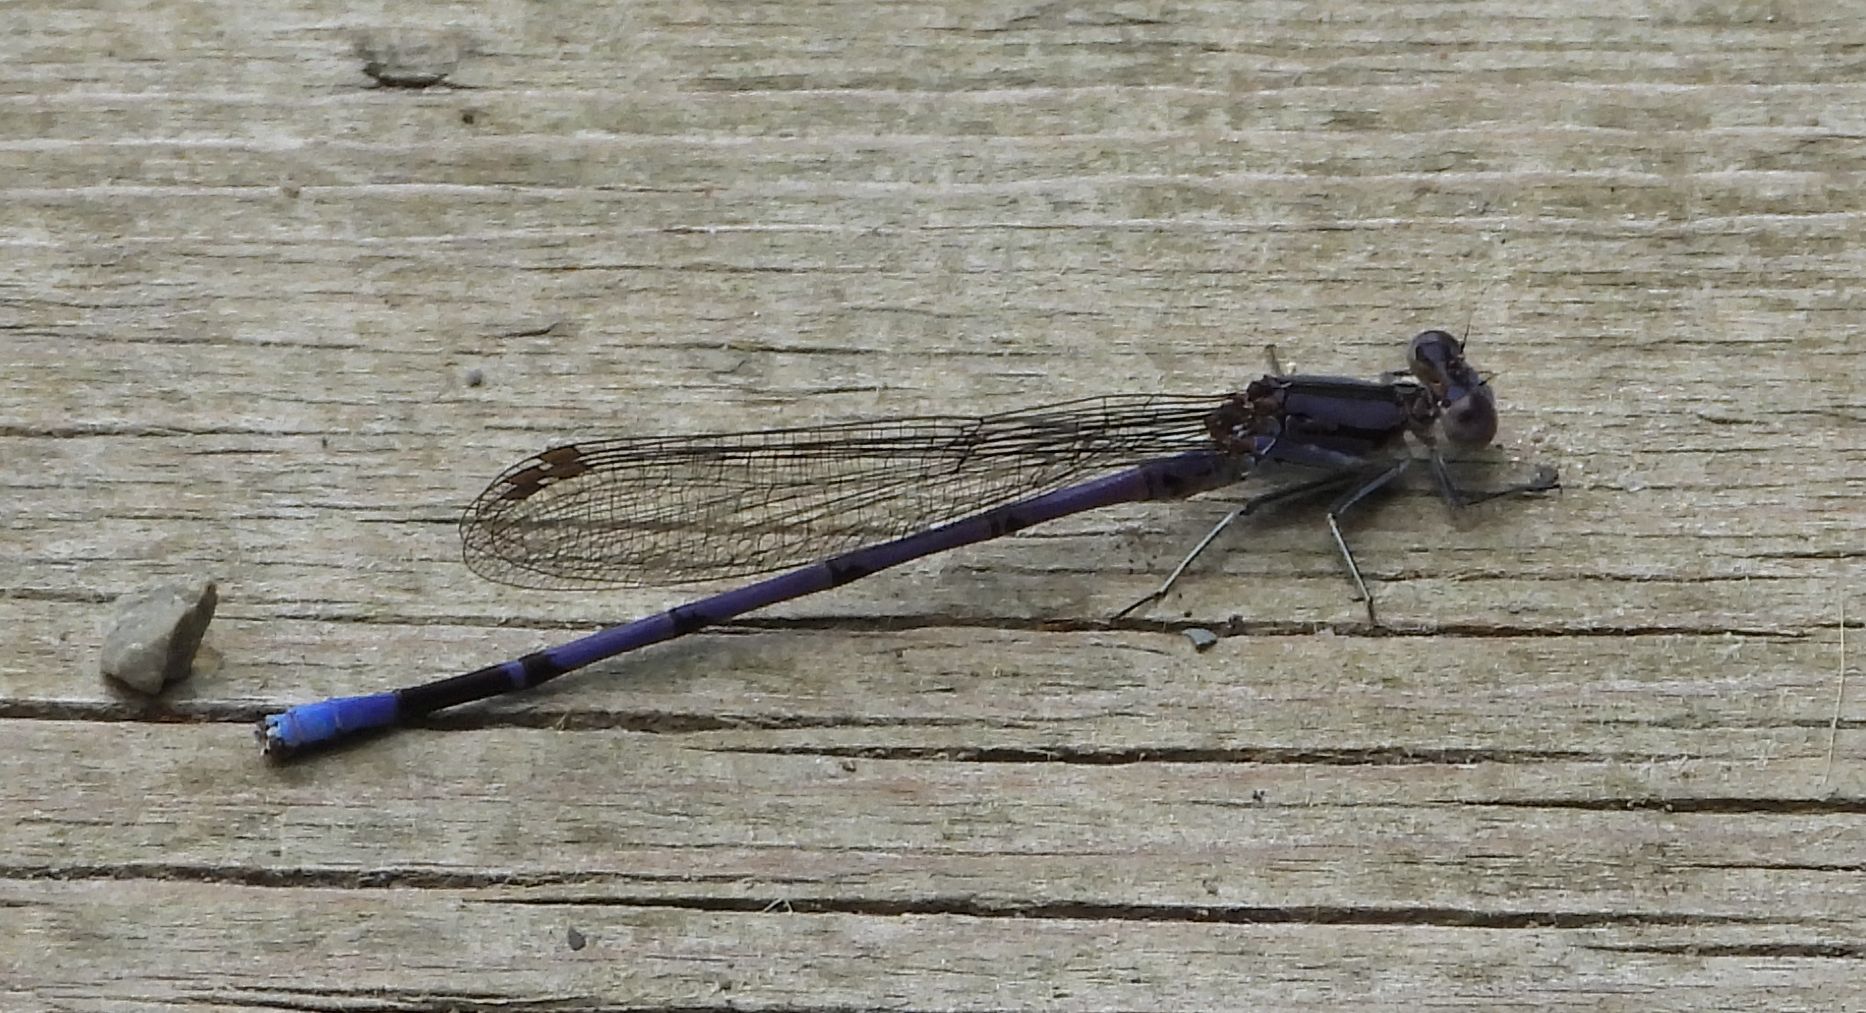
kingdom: Animalia
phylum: Arthropoda
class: Insecta
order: Odonata
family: Coenagrionidae
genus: Argia
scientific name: Argia fumipennis
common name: Variable dancer
